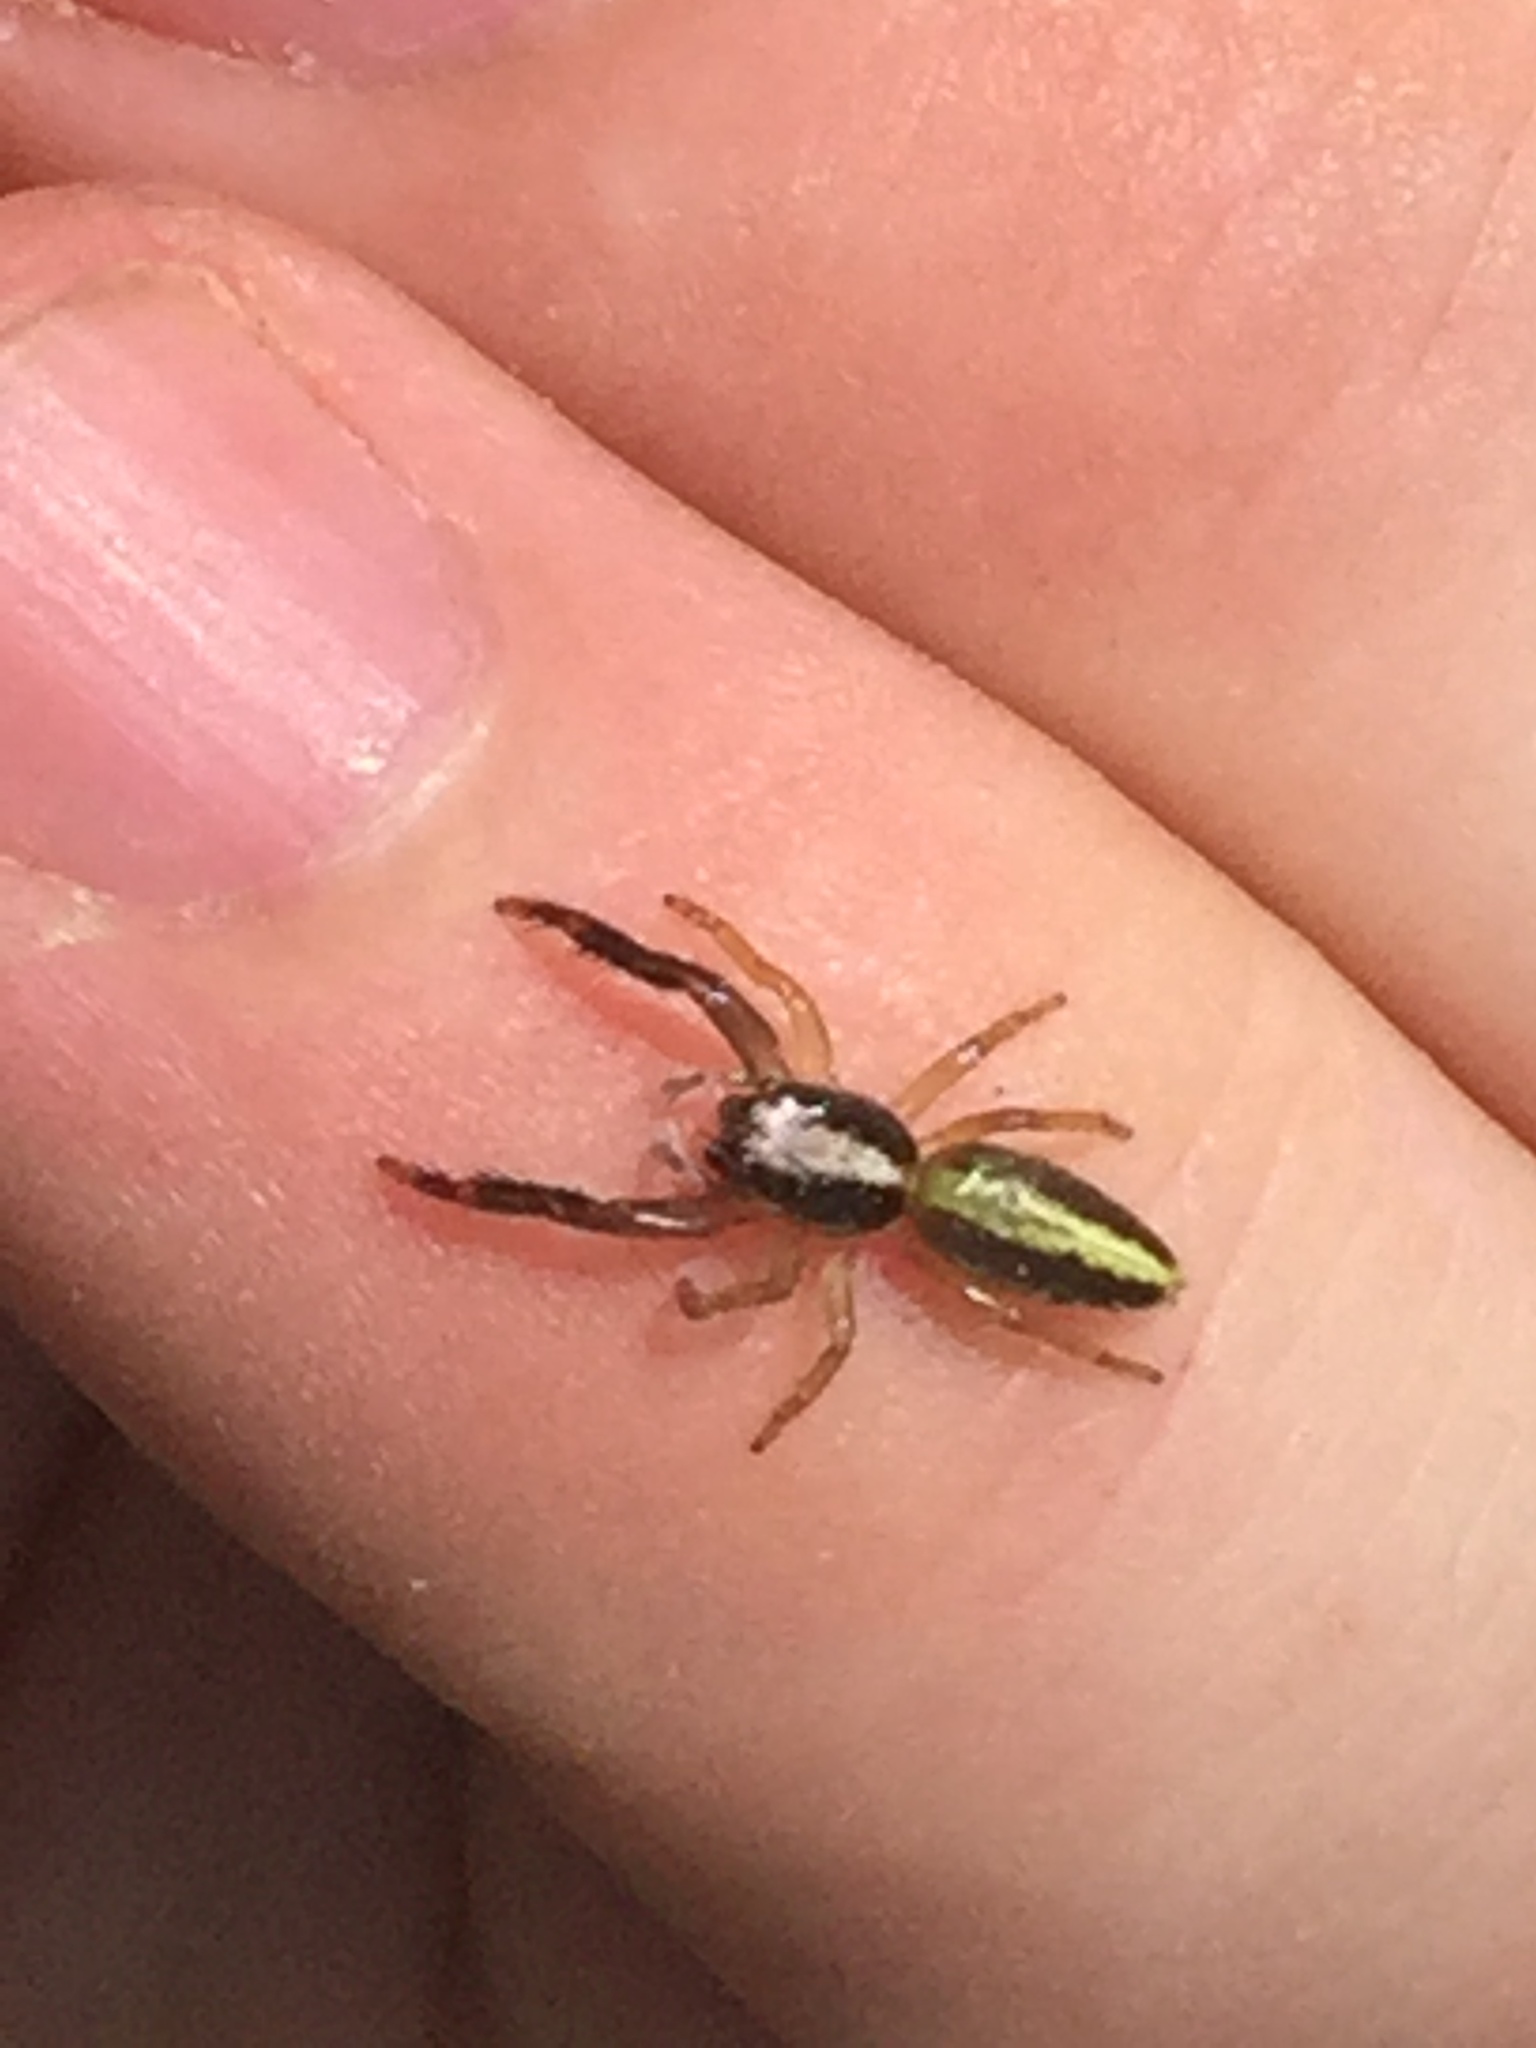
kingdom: Animalia
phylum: Arthropoda
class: Arachnida
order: Araneae
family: Salticidae
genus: Trite
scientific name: Trite planiceps
